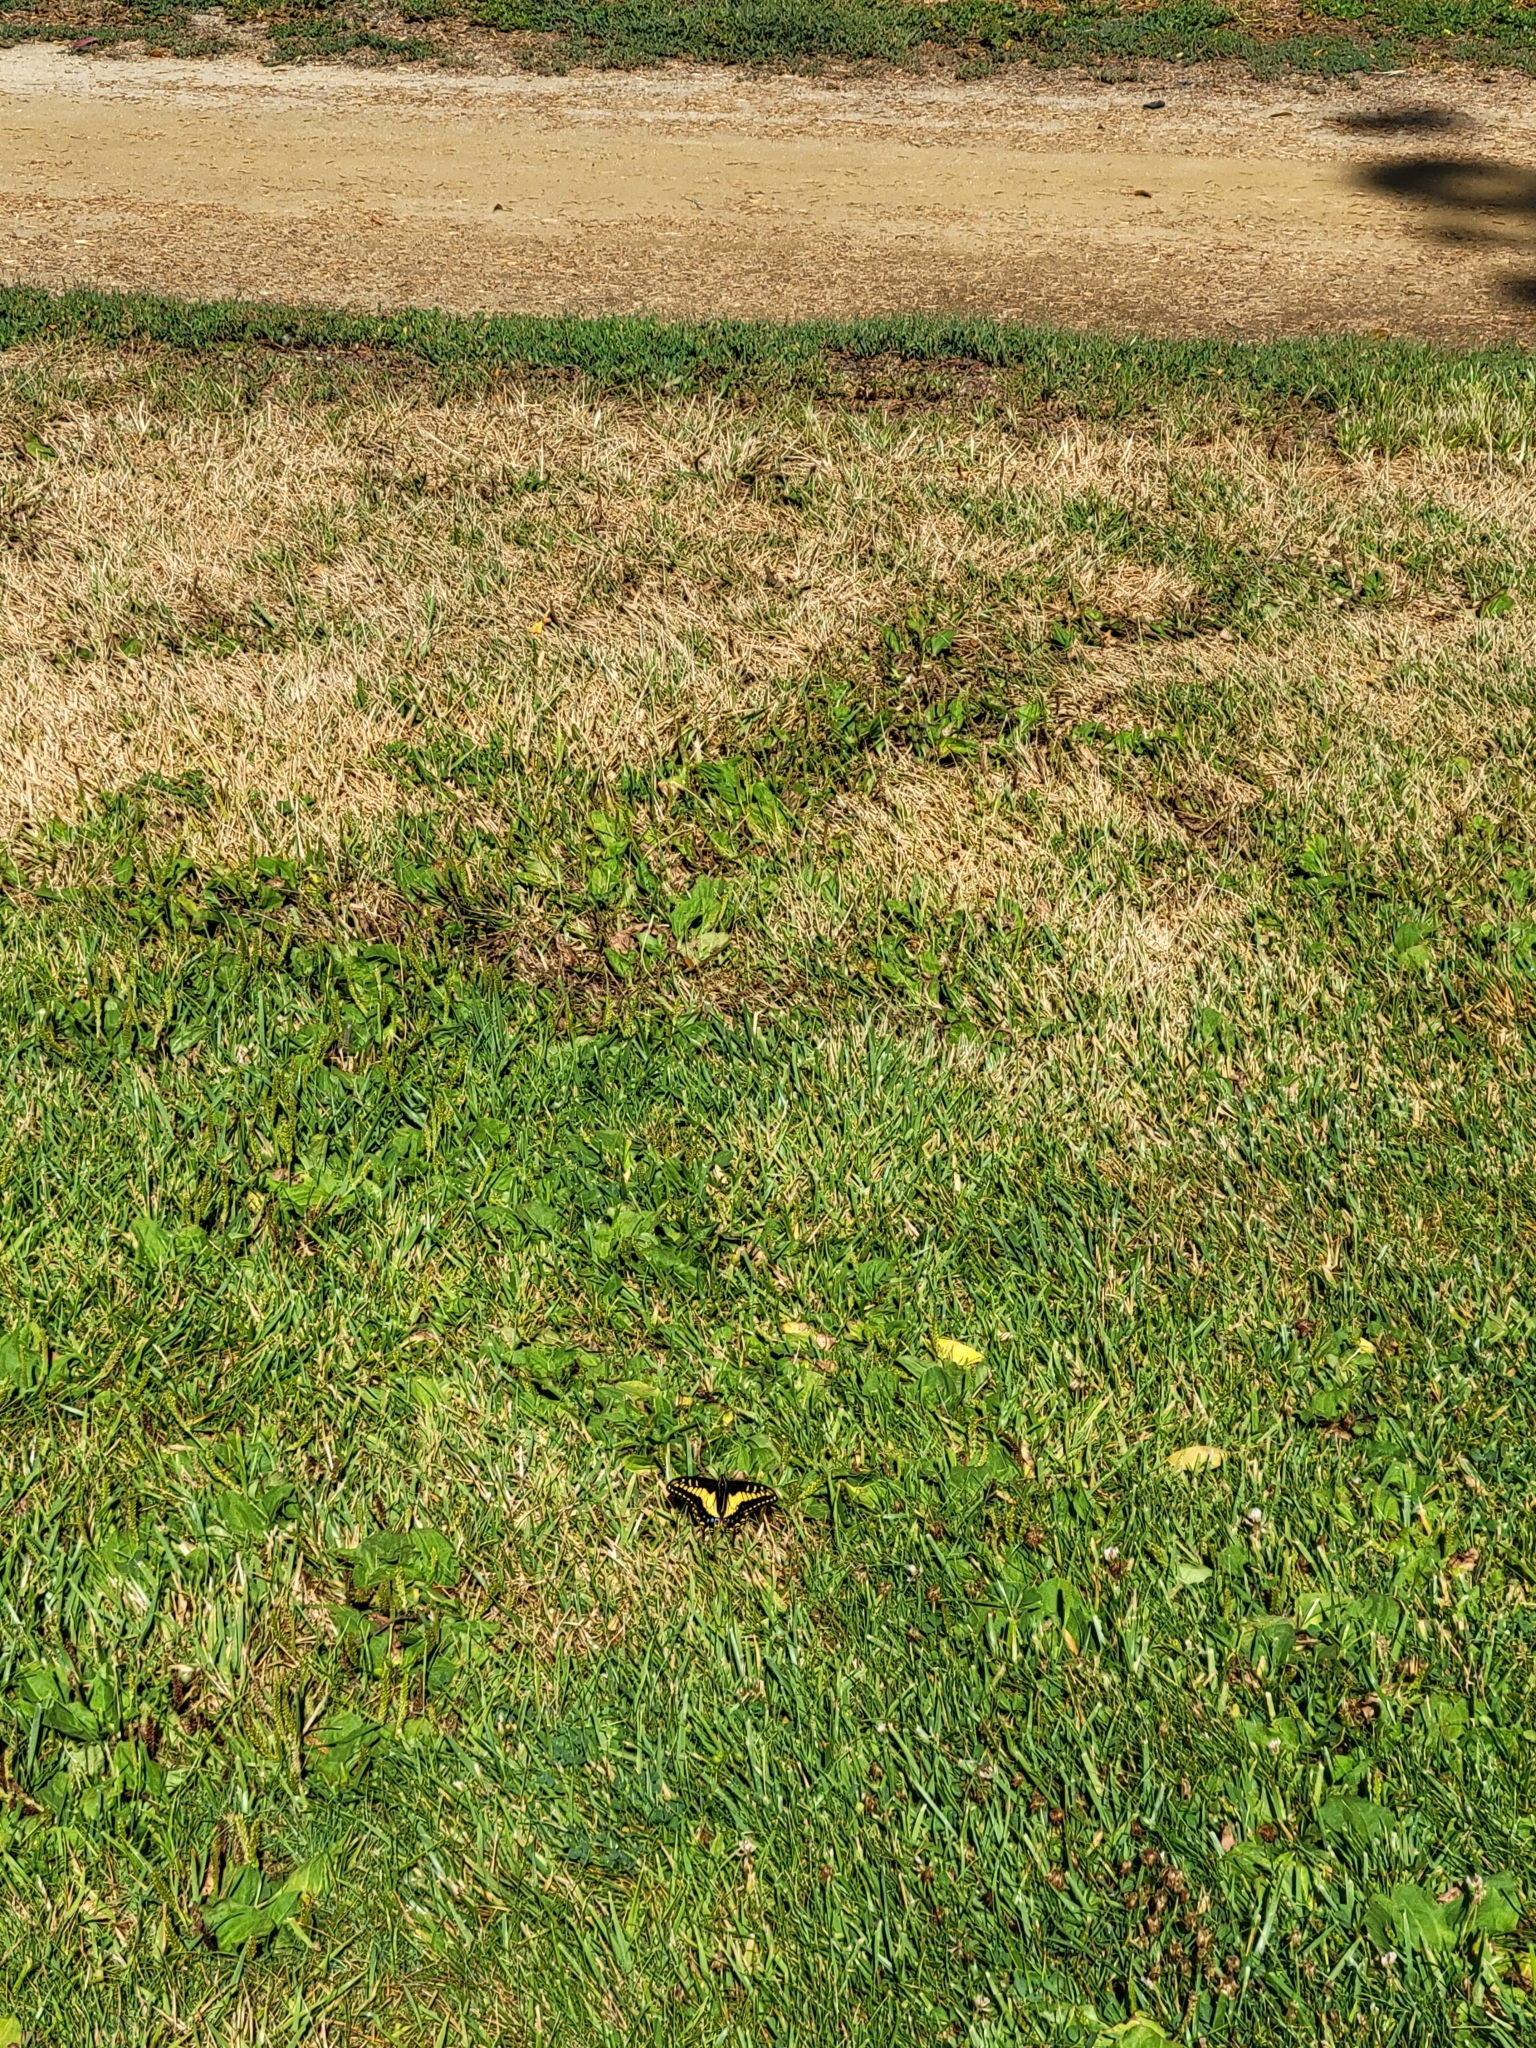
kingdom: Animalia
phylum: Arthropoda
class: Insecta
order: Lepidoptera
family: Papilionidae
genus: Papilio
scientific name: Papilio zelicaon
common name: Anise swallowtail
